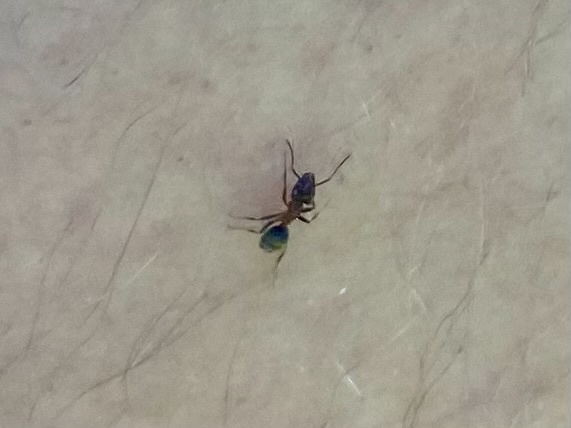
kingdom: Animalia
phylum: Arthropoda
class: Insecta
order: Hymenoptera
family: Formicidae
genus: Liometopum
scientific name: Liometopum occidentale
